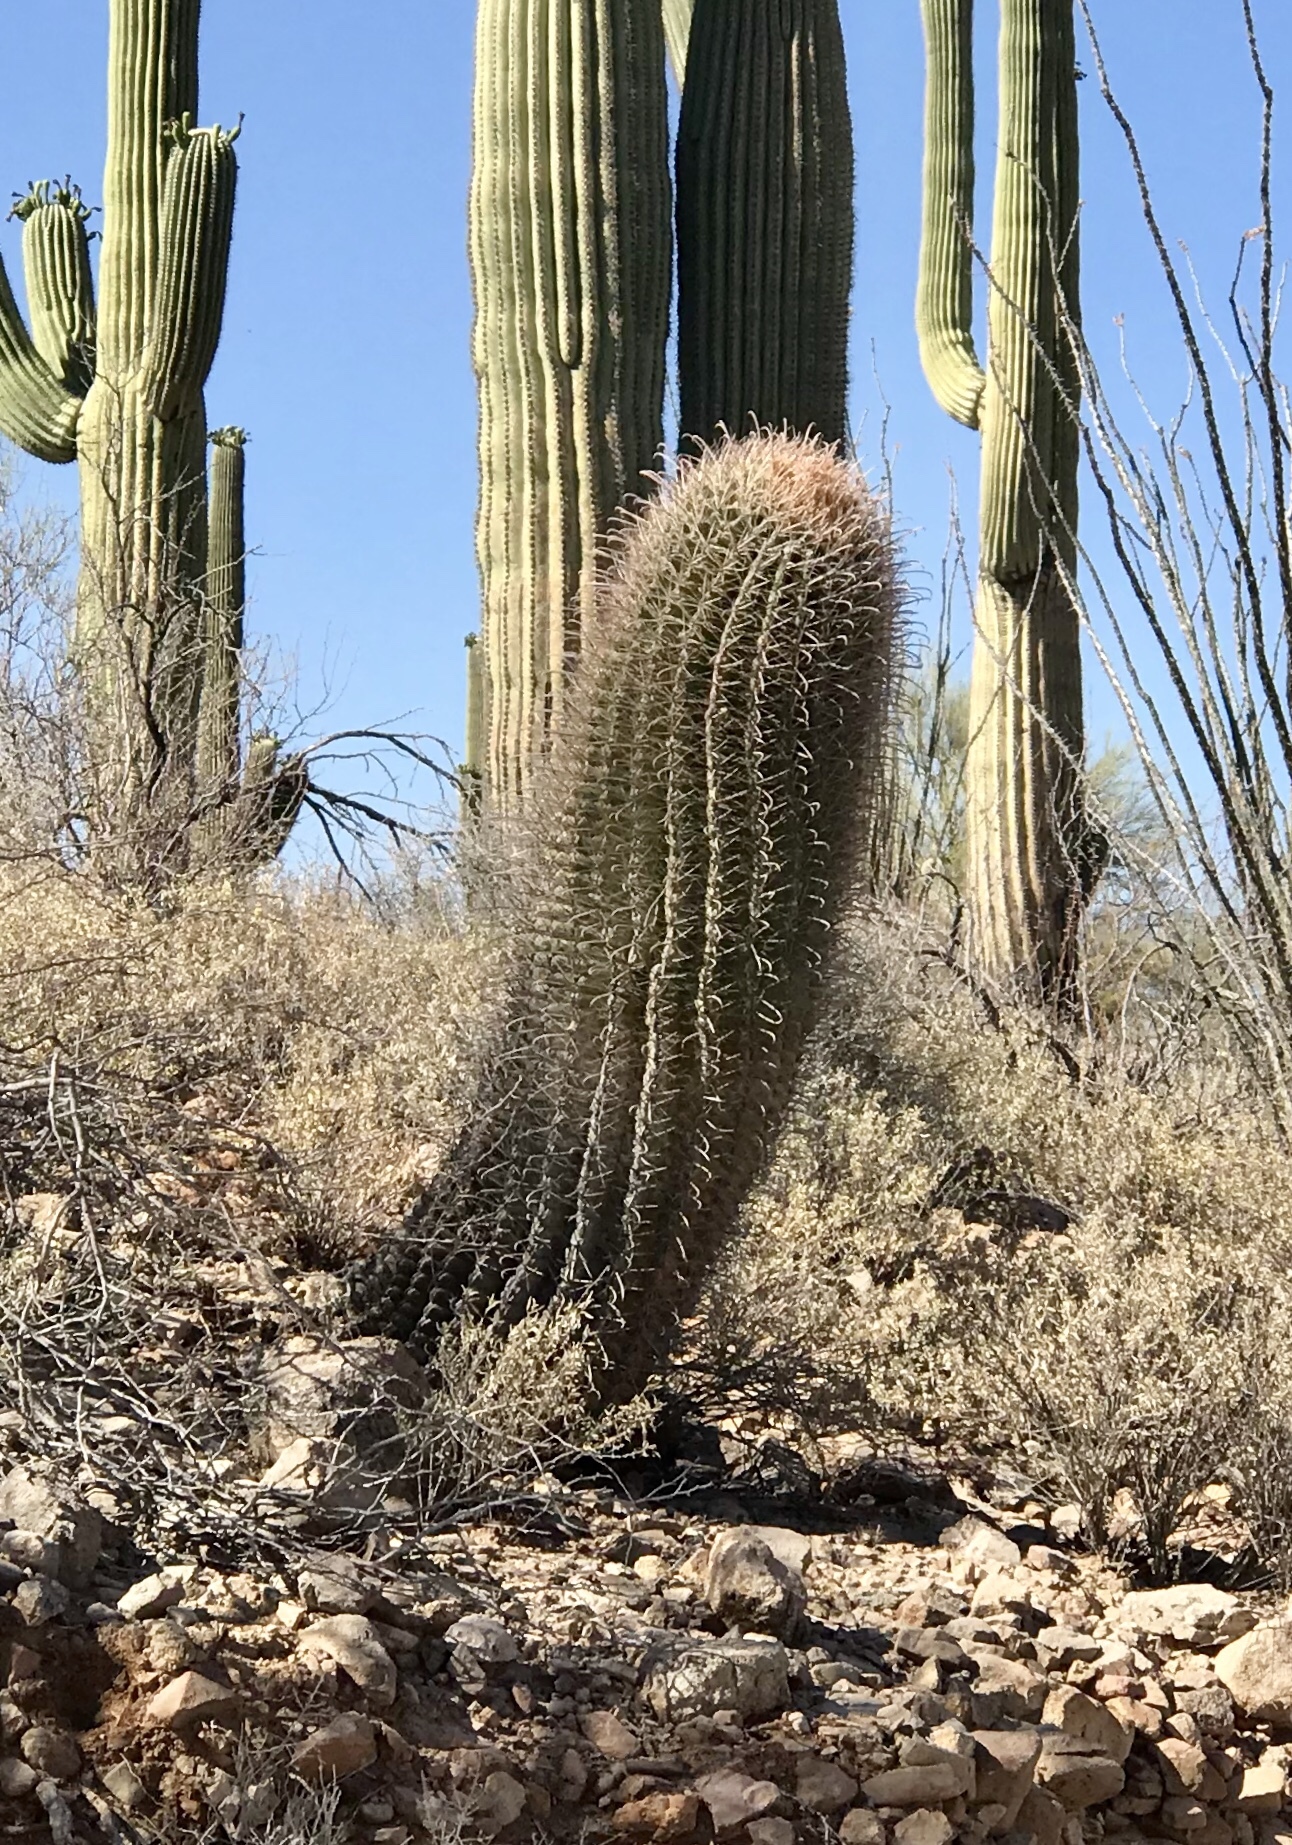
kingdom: Plantae
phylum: Tracheophyta
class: Magnoliopsida
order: Caryophyllales
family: Cactaceae
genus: Ferocactus
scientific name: Ferocactus wislizeni
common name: Candy barrel cactus
